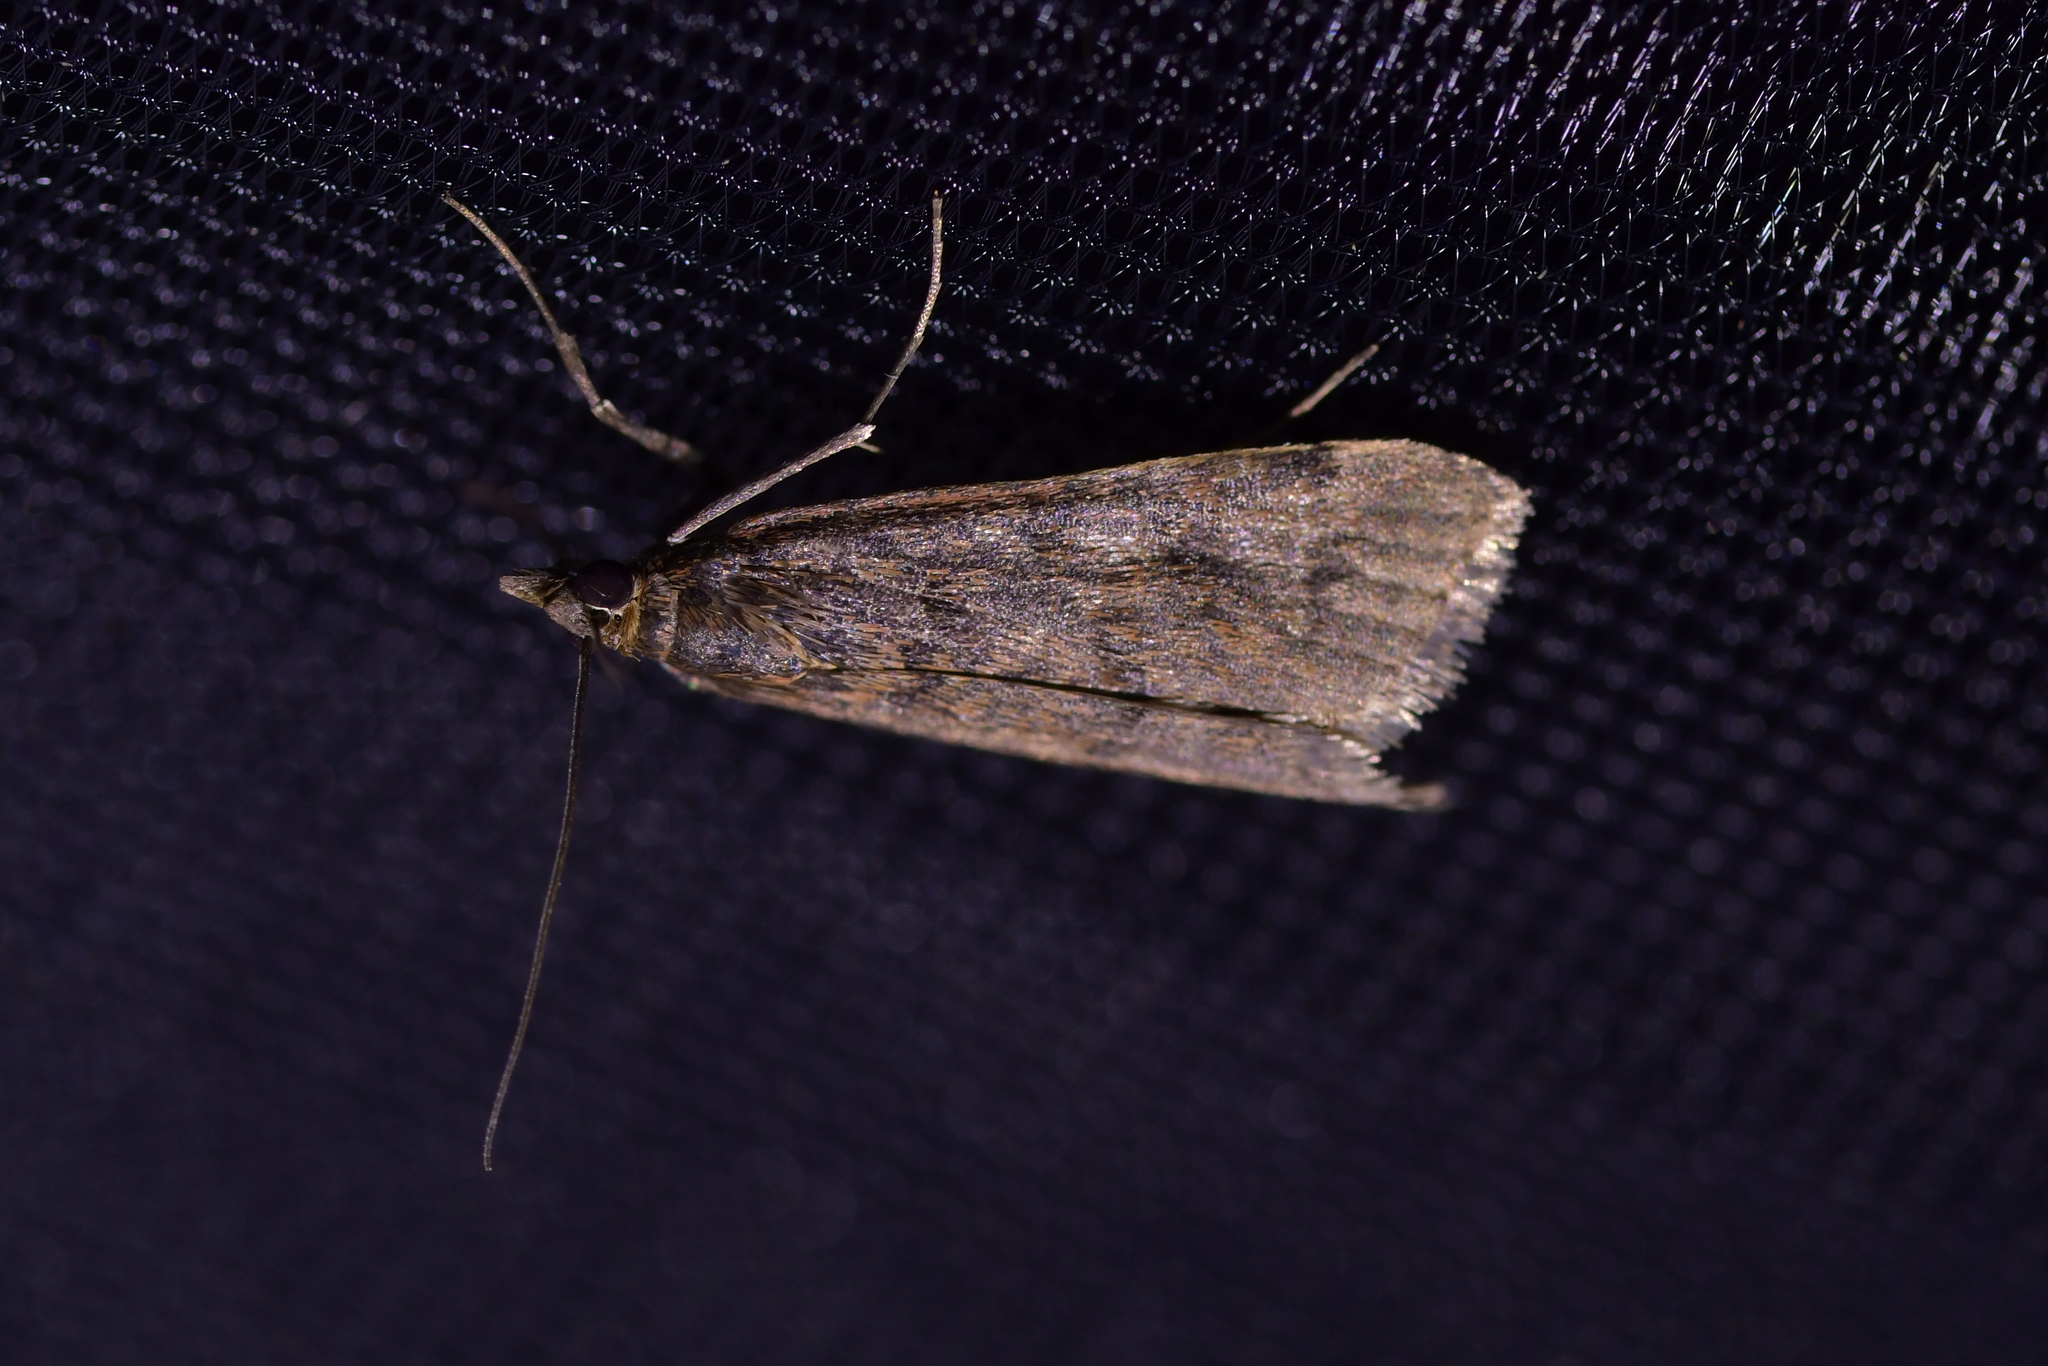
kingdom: Animalia
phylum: Arthropoda
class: Insecta
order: Lepidoptera
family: Crambidae
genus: Achyra
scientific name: Achyra affinitalis
